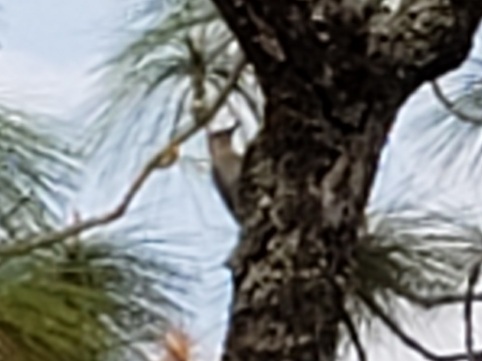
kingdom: Animalia
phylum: Chordata
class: Aves
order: Piciformes
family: Picidae
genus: Melanerpes
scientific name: Melanerpes carolinus
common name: Red-bellied woodpecker
